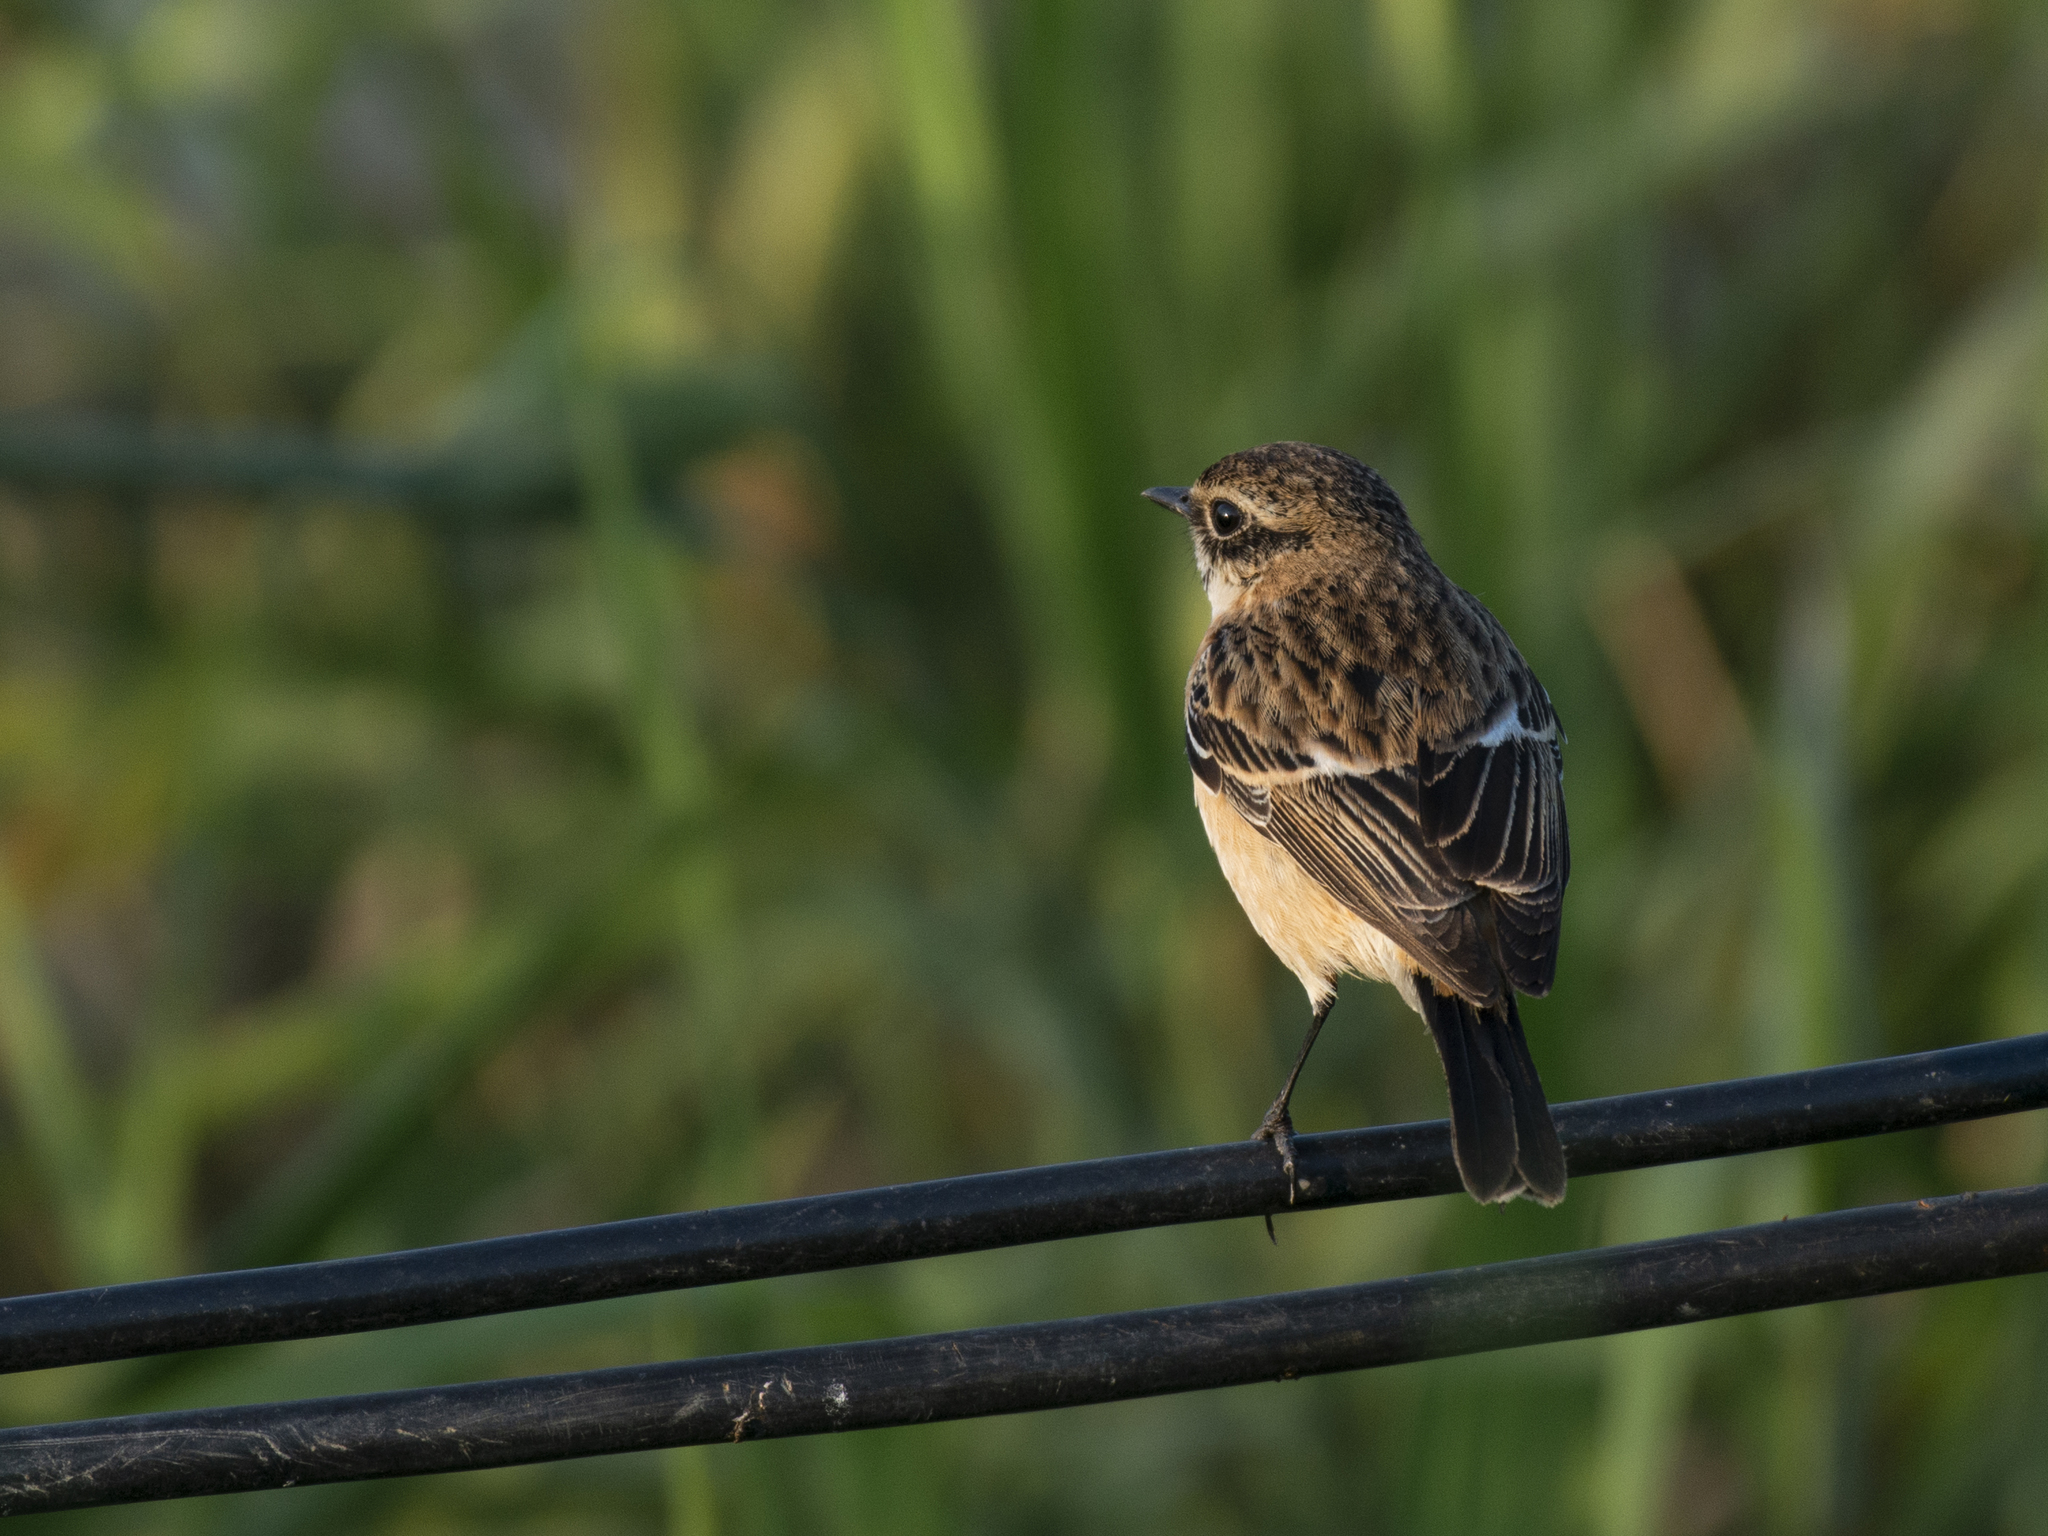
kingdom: Animalia
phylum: Chordata
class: Aves
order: Passeriformes
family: Muscicapidae
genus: Saxicola
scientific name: Saxicola maurus
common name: Siberian stonechat
